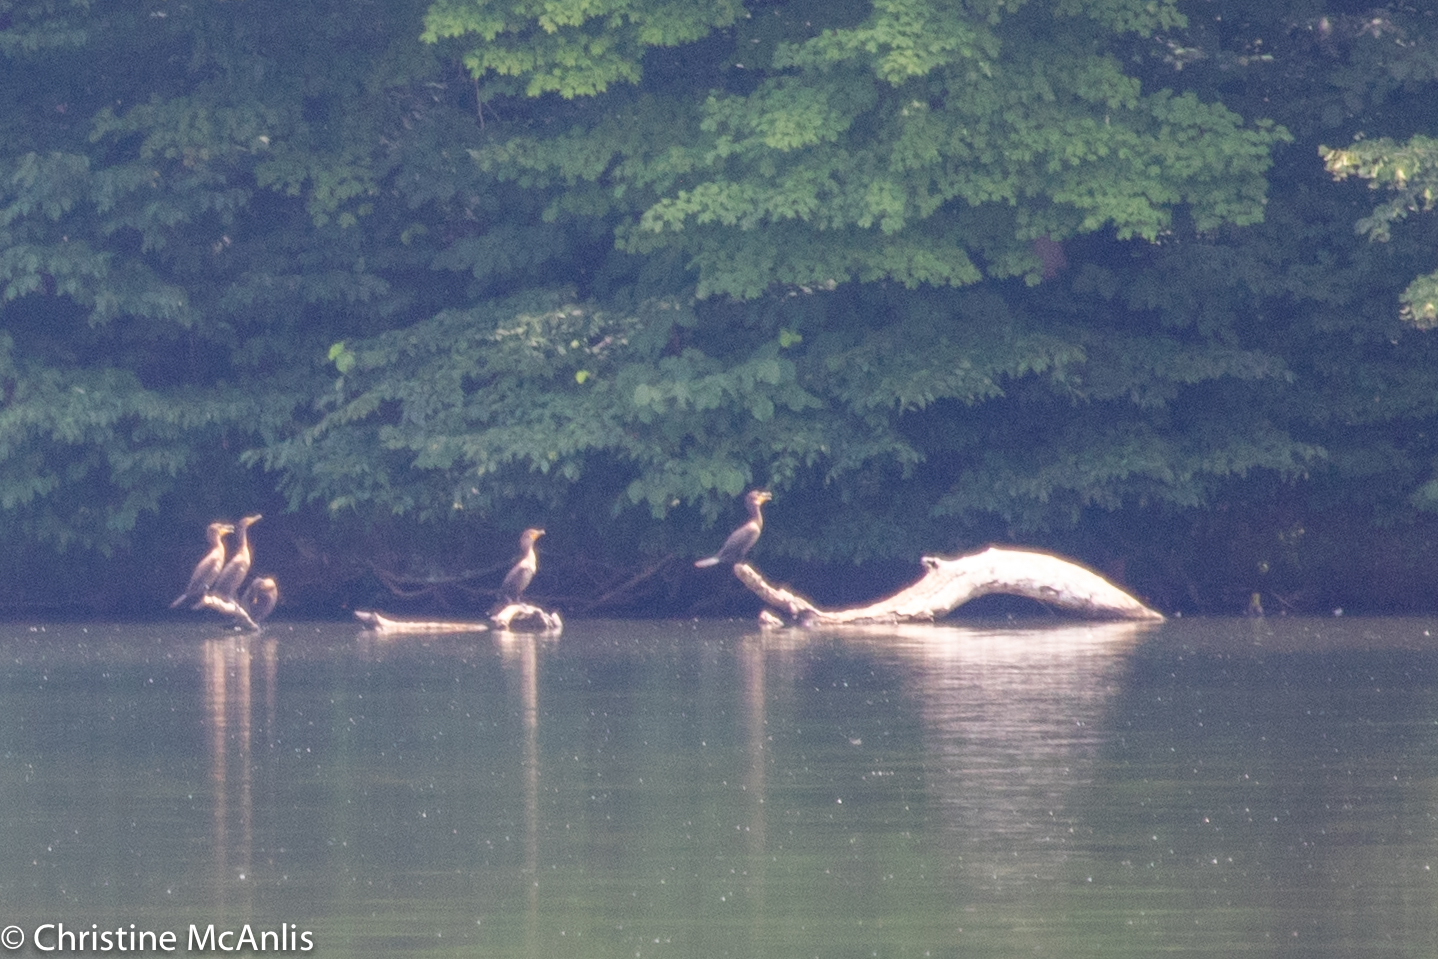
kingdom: Animalia
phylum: Chordata
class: Aves
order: Suliformes
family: Phalacrocoracidae
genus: Phalacrocorax
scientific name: Phalacrocorax auritus
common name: Double-crested cormorant
